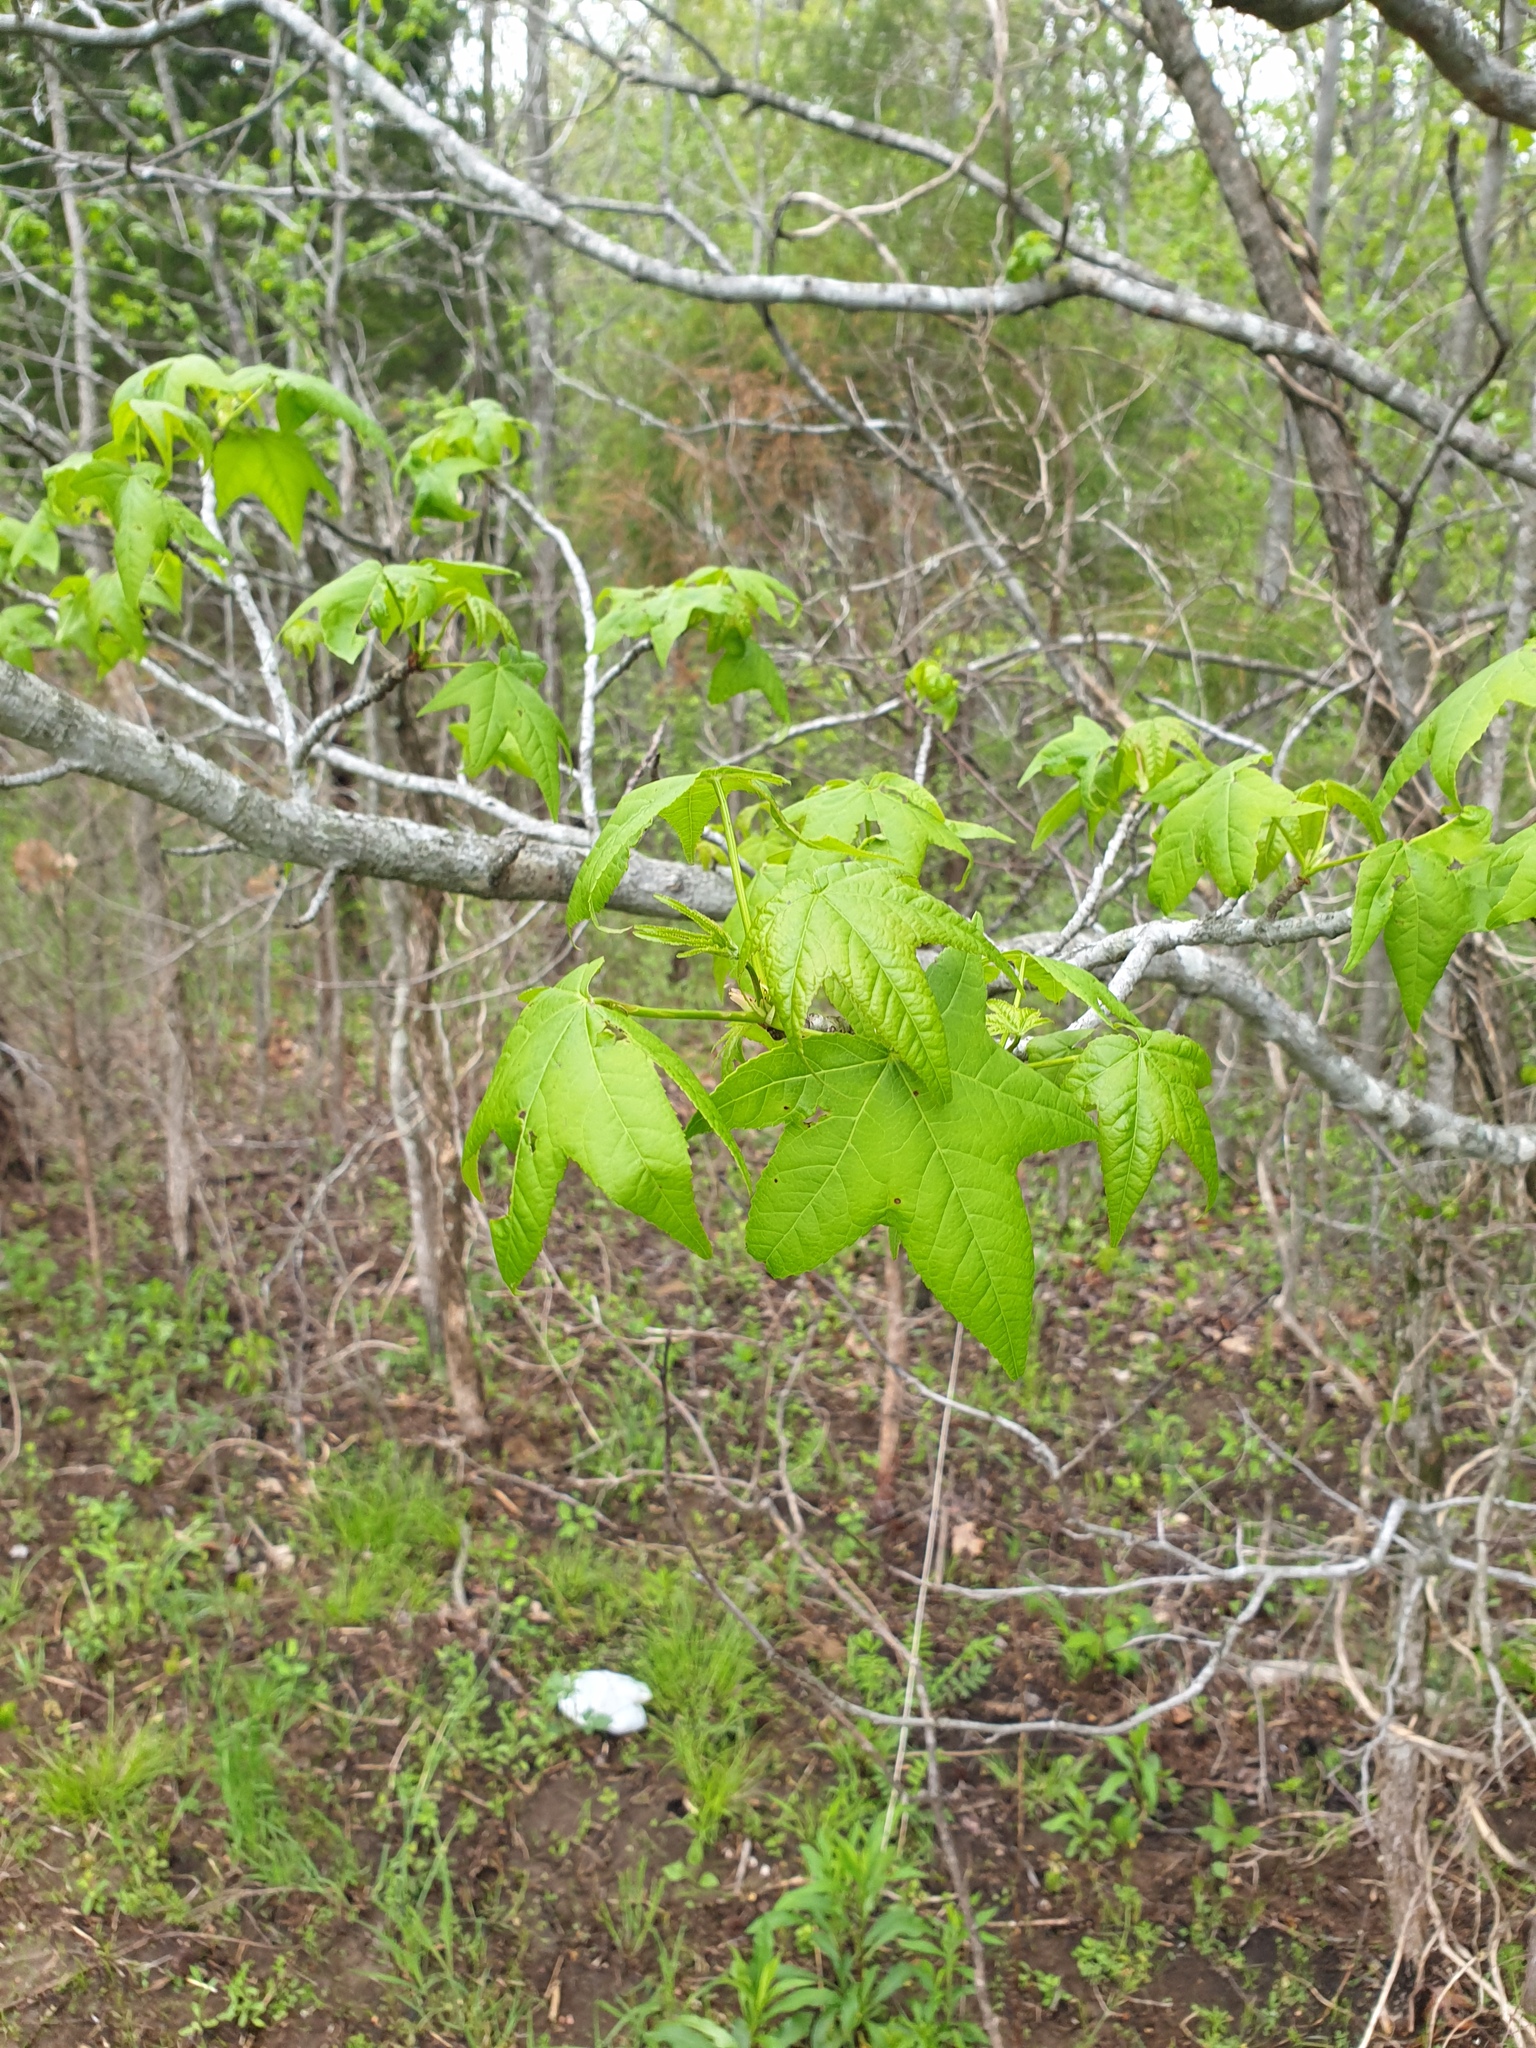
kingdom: Plantae
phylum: Tracheophyta
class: Magnoliopsida
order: Saxifragales
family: Altingiaceae
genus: Liquidambar
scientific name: Liquidambar styraciflua
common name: Sweet gum
